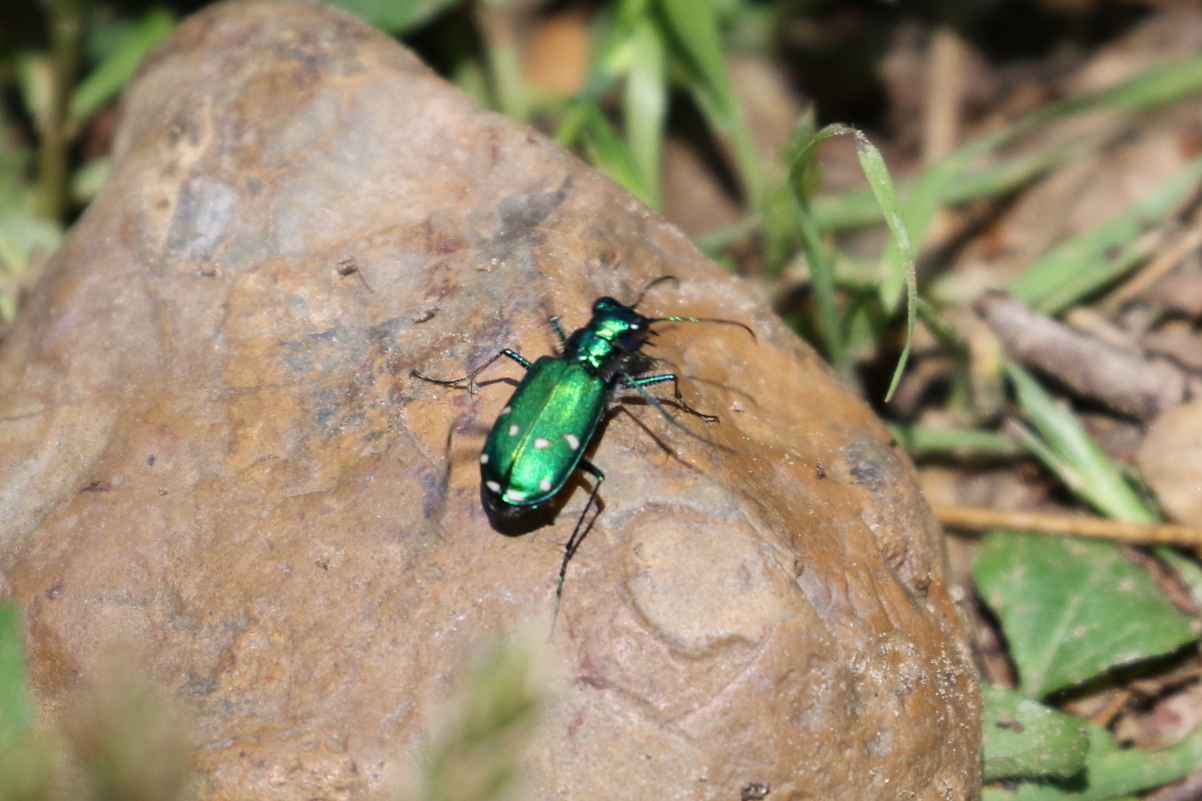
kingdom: Animalia
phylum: Arthropoda
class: Insecta
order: Coleoptera
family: Carabidae
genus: Cicindela
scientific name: Cicindela sexguttata
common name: Six-spotted tiger beetle
